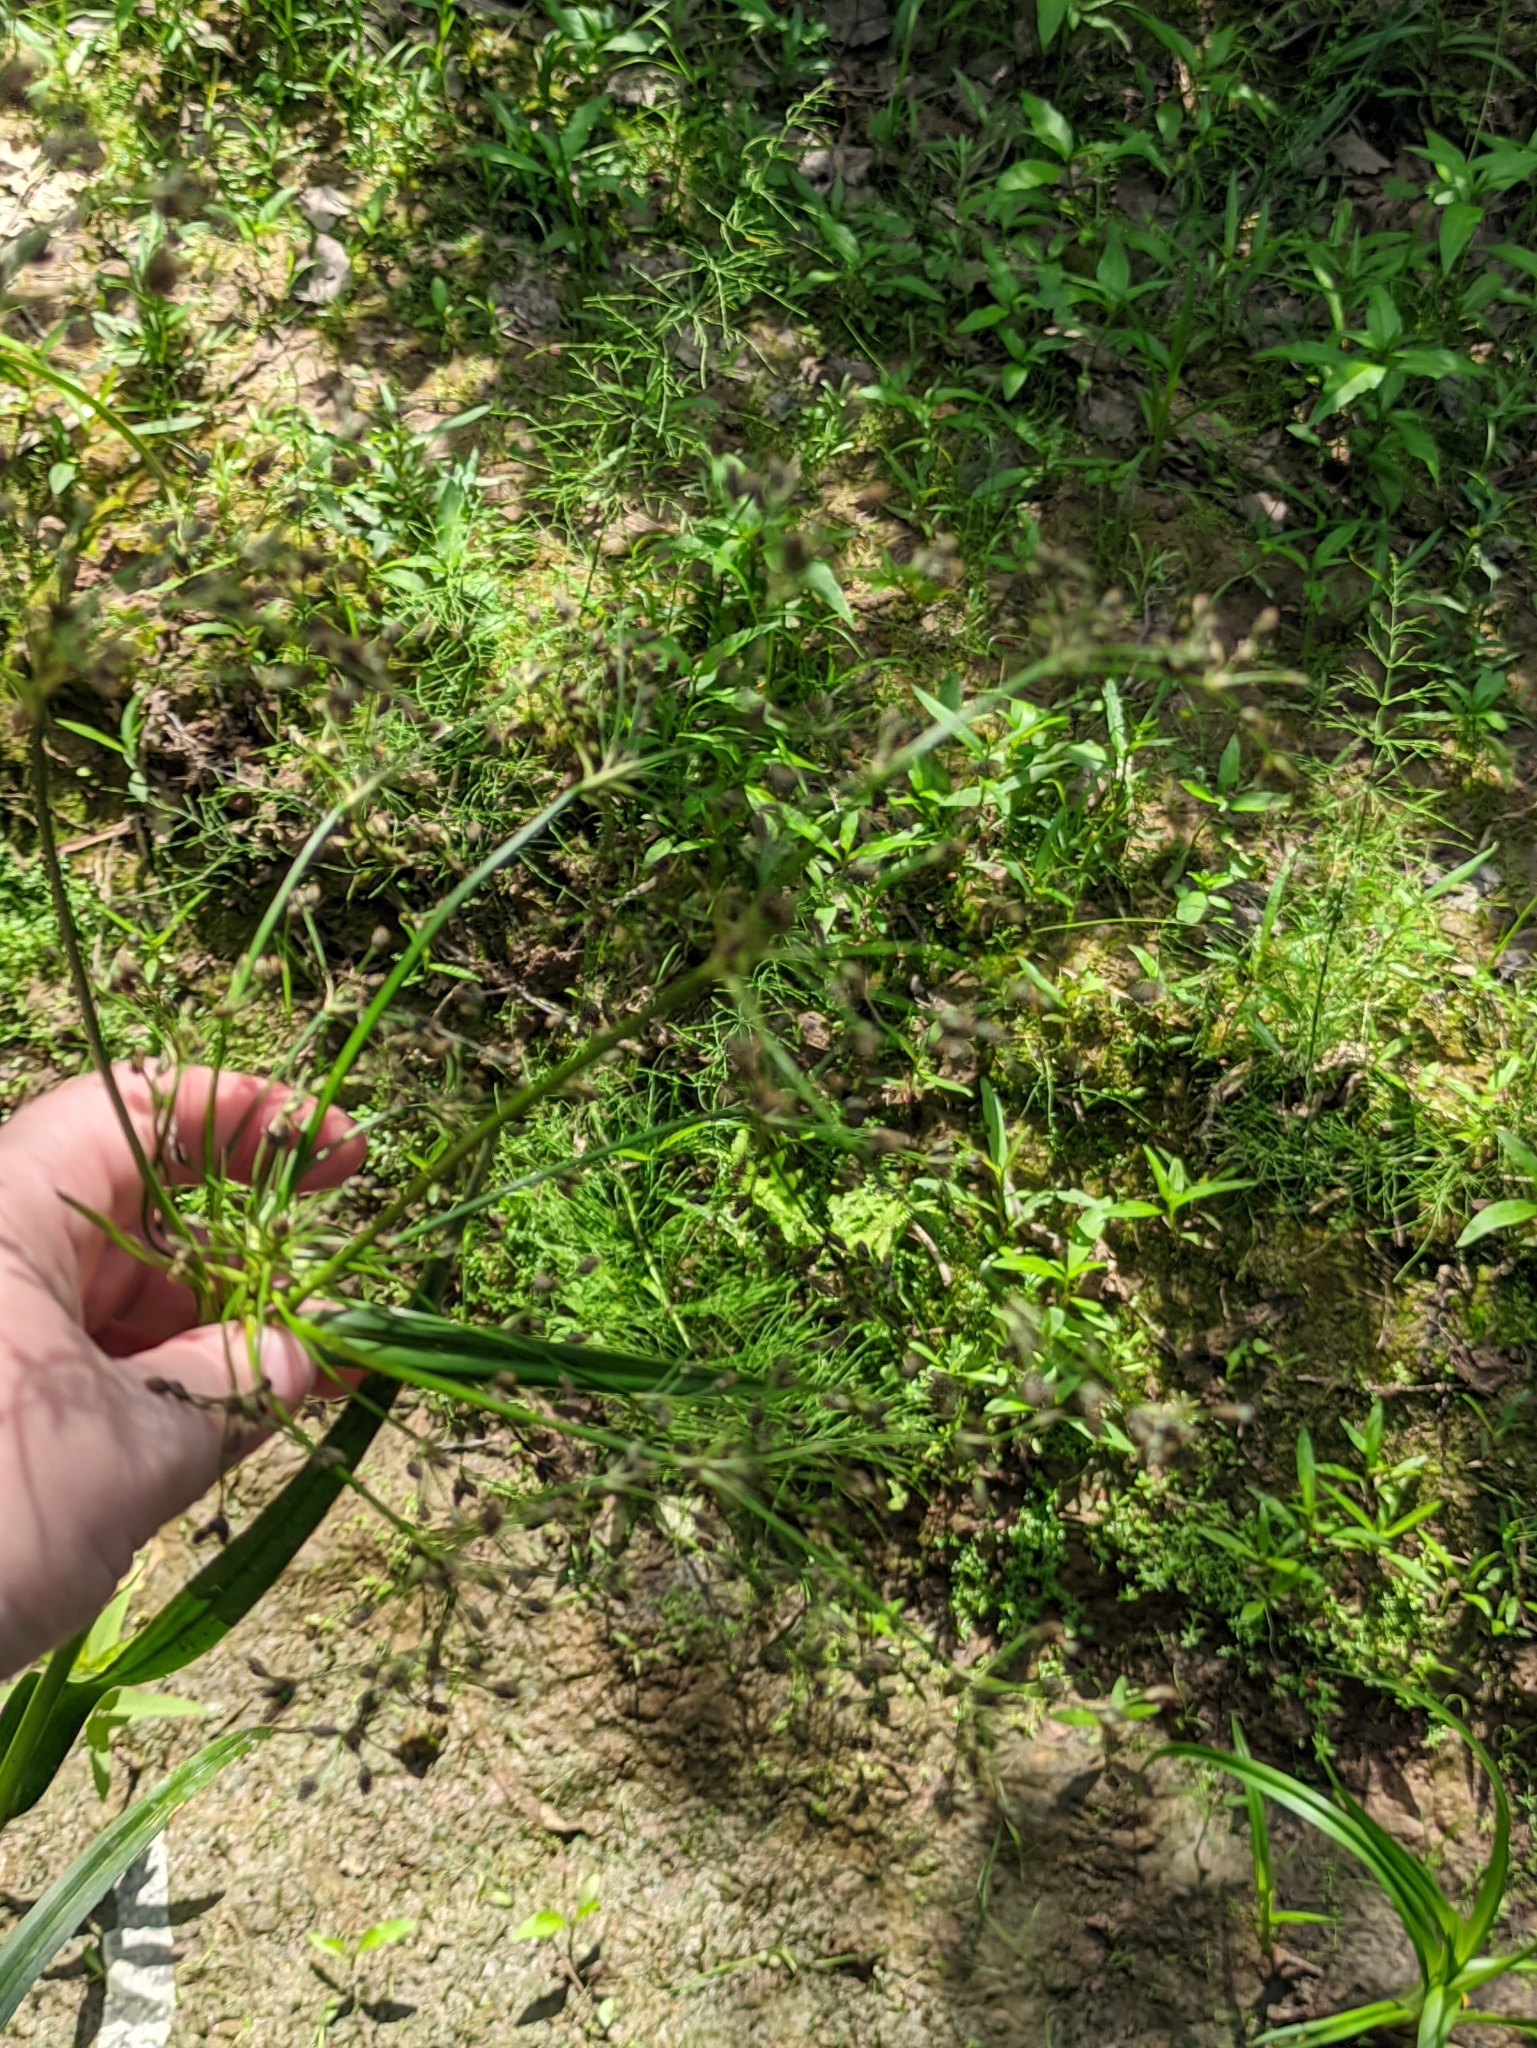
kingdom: Plantae
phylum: Tracheophyta
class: Liliopsida
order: Poales
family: Cyperaceae
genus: Scirpus
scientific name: Scirpus sylvaticus
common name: Wood club-rush
